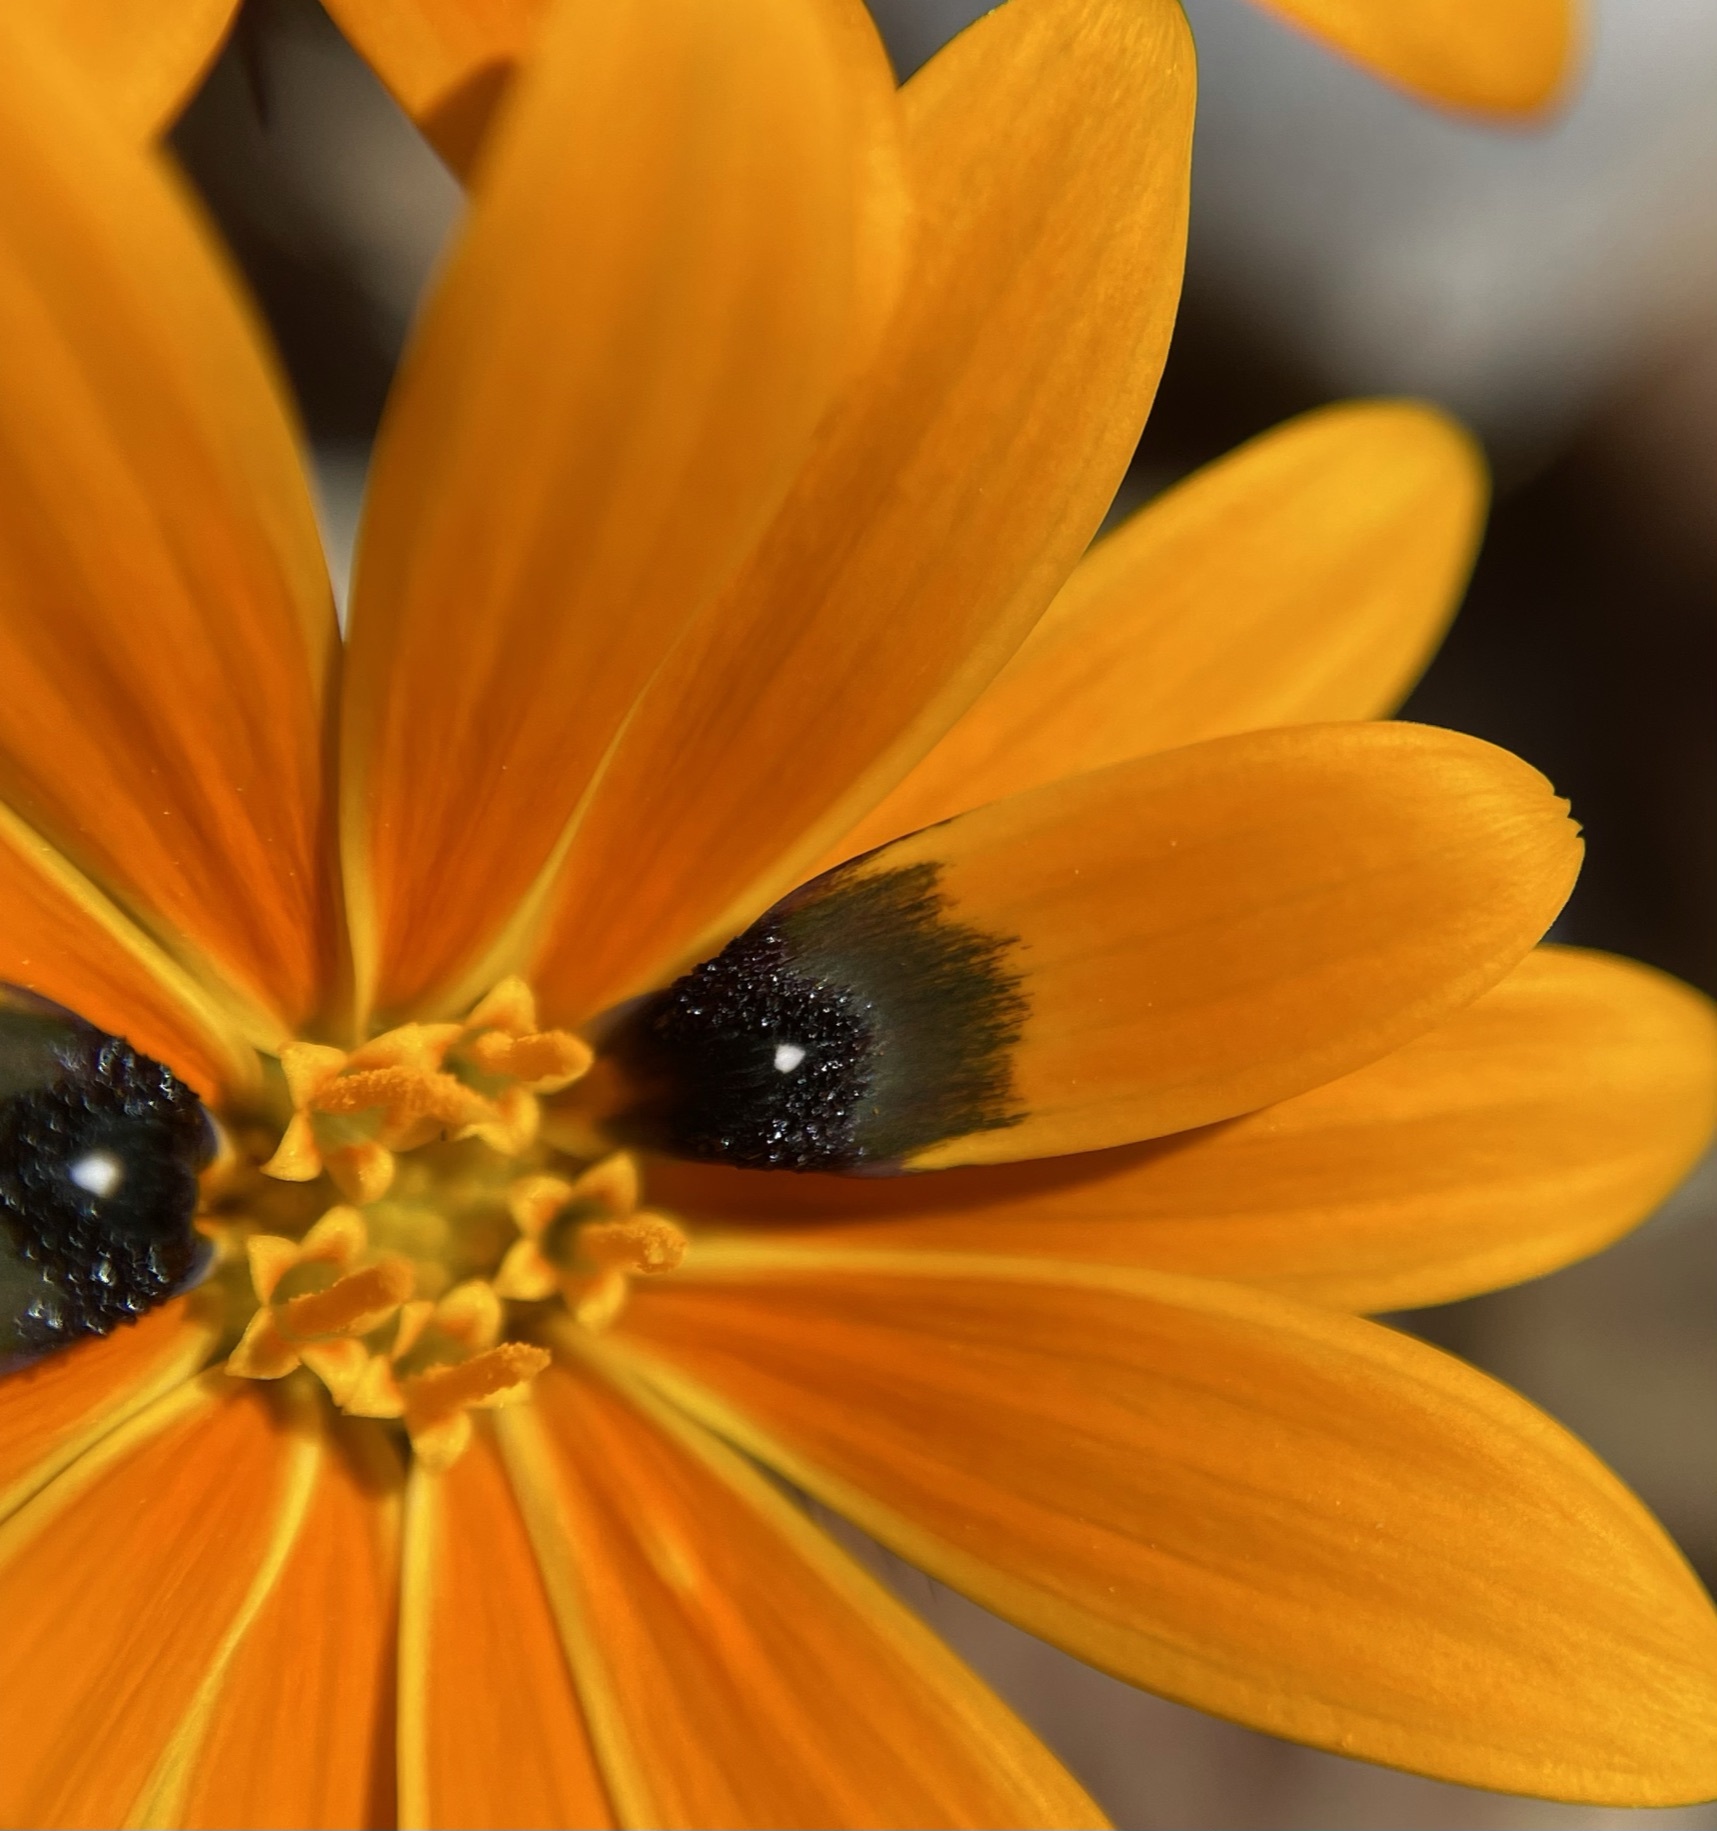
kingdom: Plantae
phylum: Tracheophyta
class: Magnoliopsida
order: Asterales
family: Asteraceae
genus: Gorteria
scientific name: Gorteria diffusa
